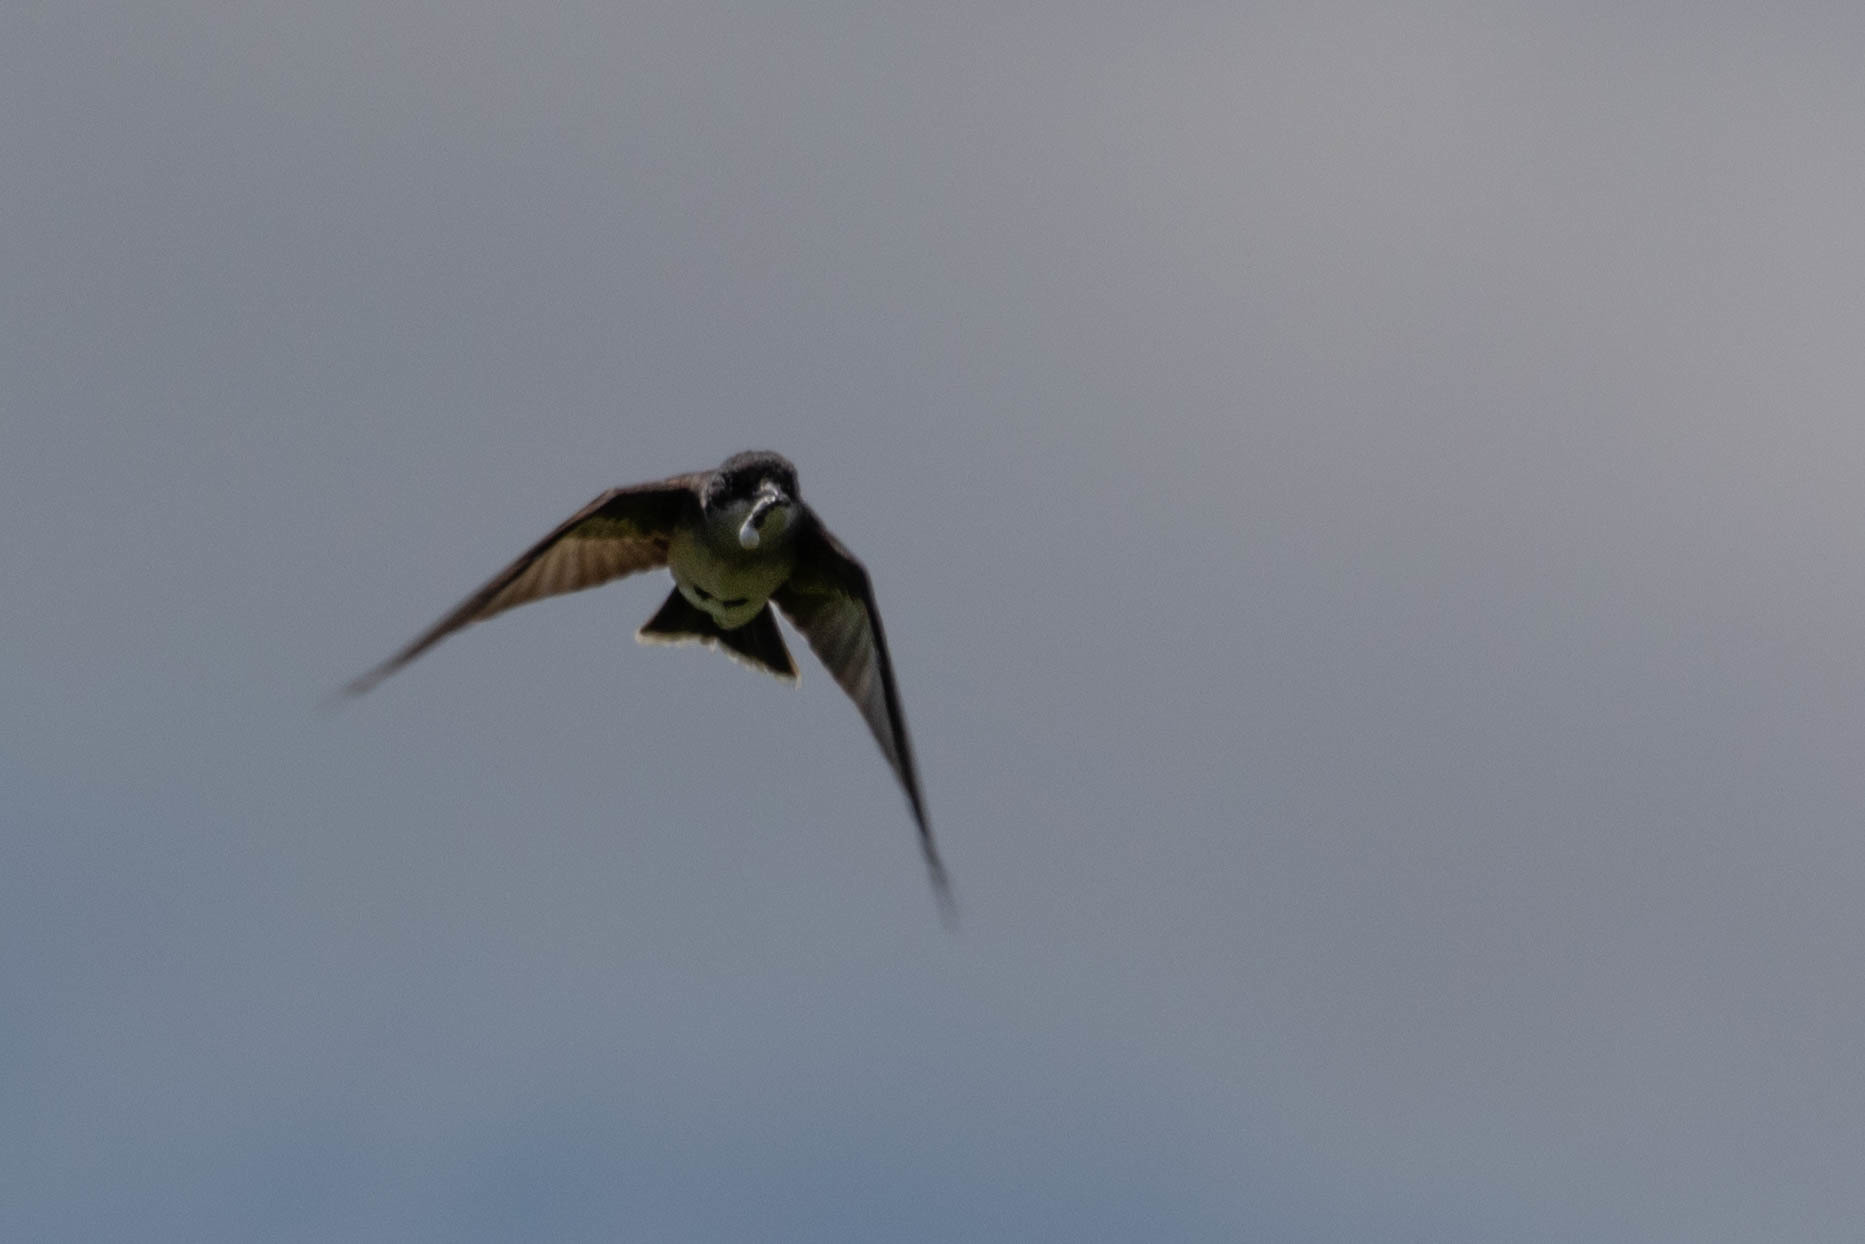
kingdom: Animalia
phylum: Chordata
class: Aves
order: Passeriformes
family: Tyrannidae
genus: Tyrannus
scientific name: Tyrannus tyrannus
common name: Eastern kingbird
